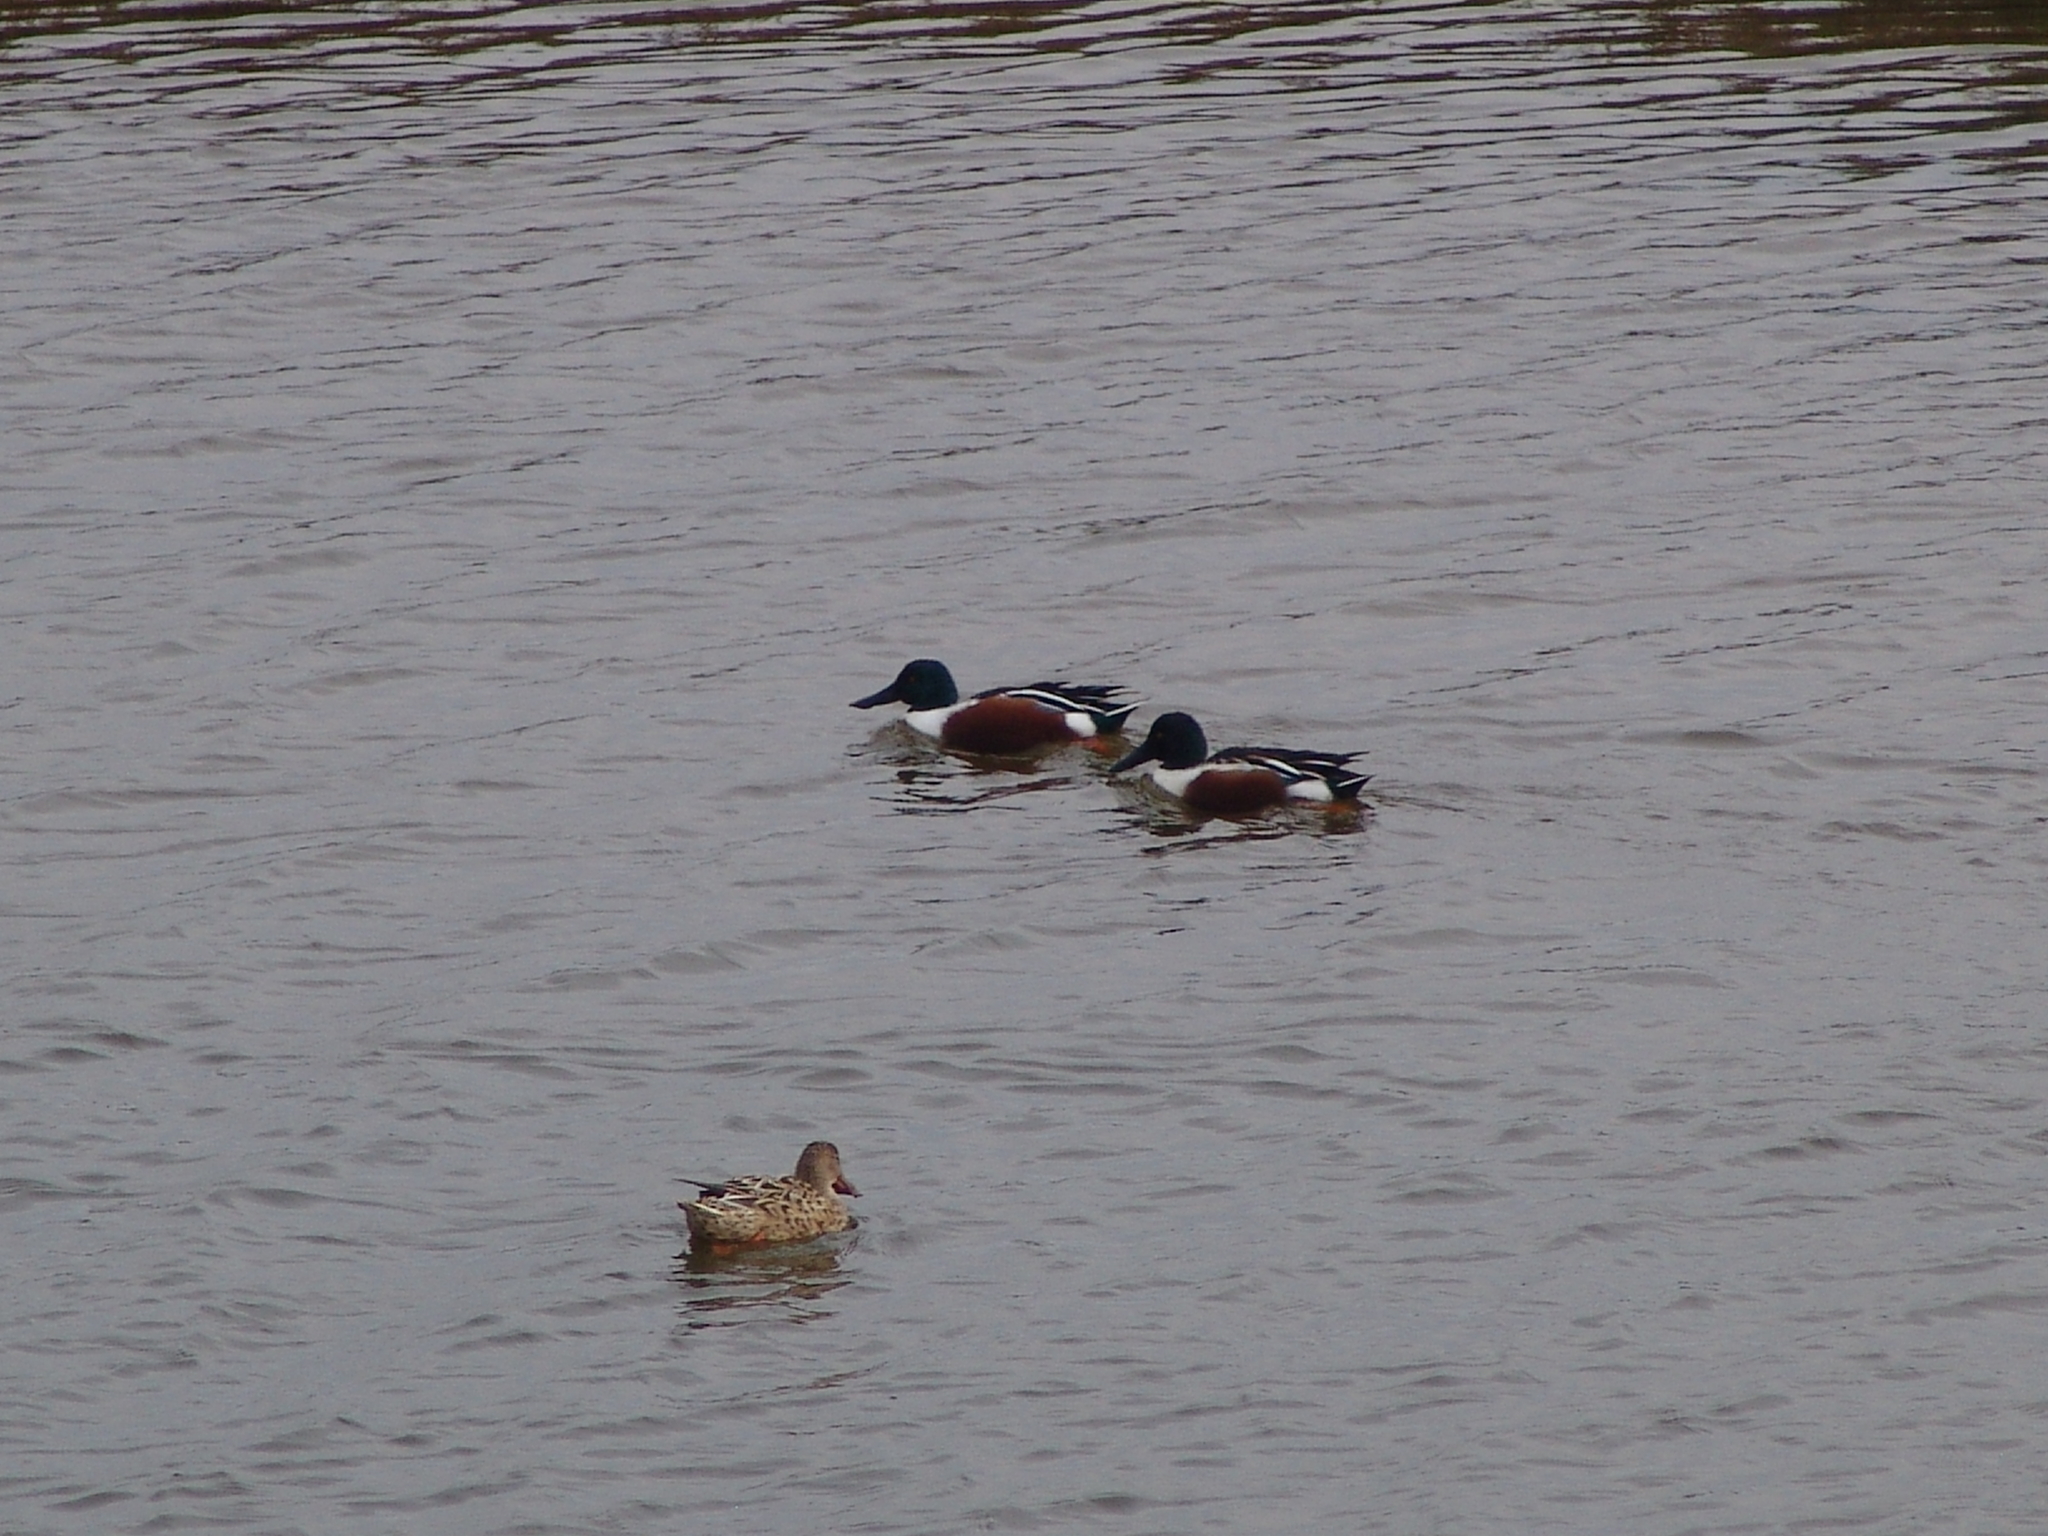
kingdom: Animalia
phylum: Chordata
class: Aves
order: Anseriformes
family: Anatidae
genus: Spatula
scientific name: Spatula clypeata
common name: Northern shoveler
